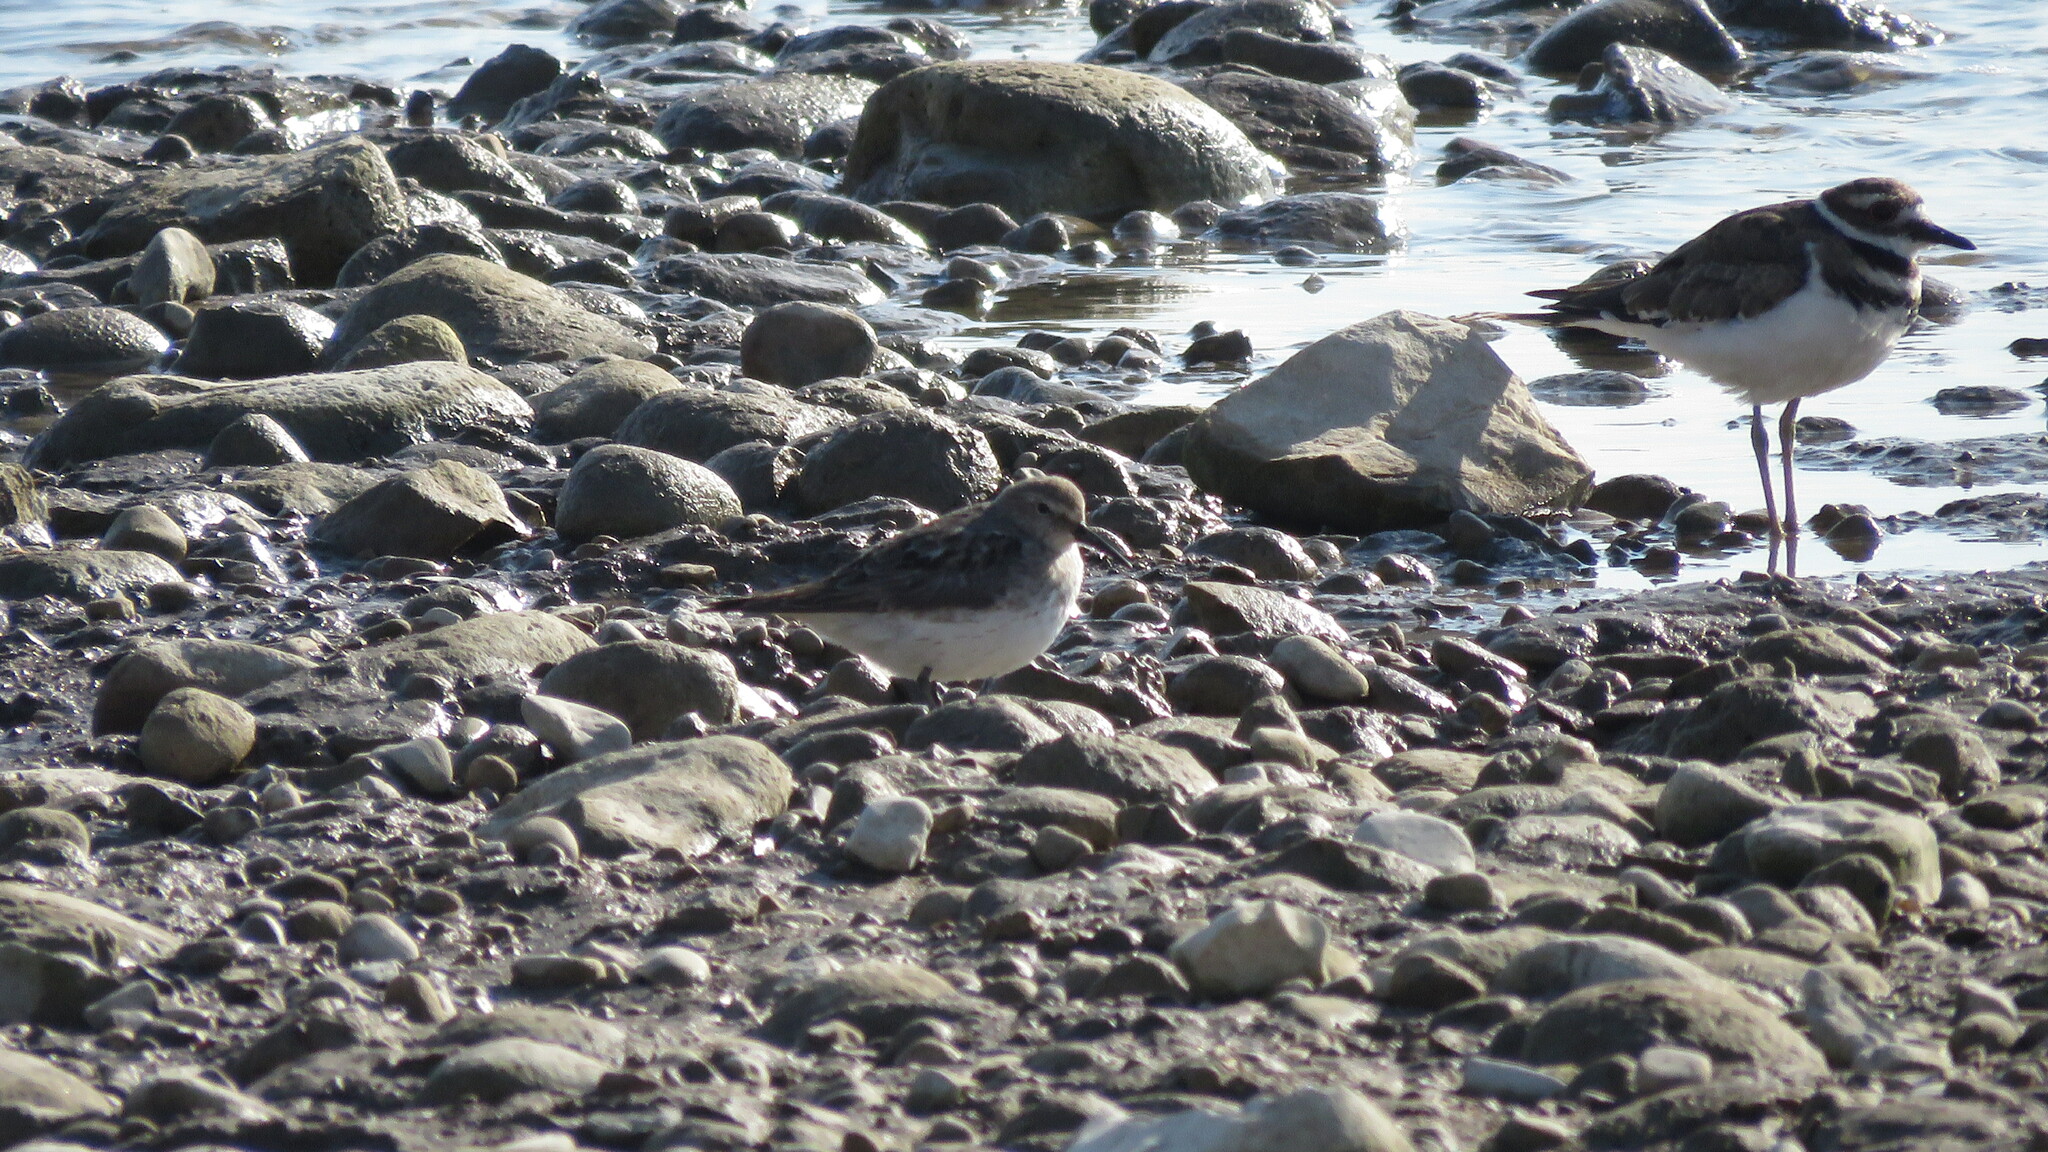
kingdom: Animalia
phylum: Chordata
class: Aves
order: Charadriiformes
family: Scolopacidae
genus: Calidris
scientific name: Calidris fuscicollis
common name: White-rumped sandpiper
